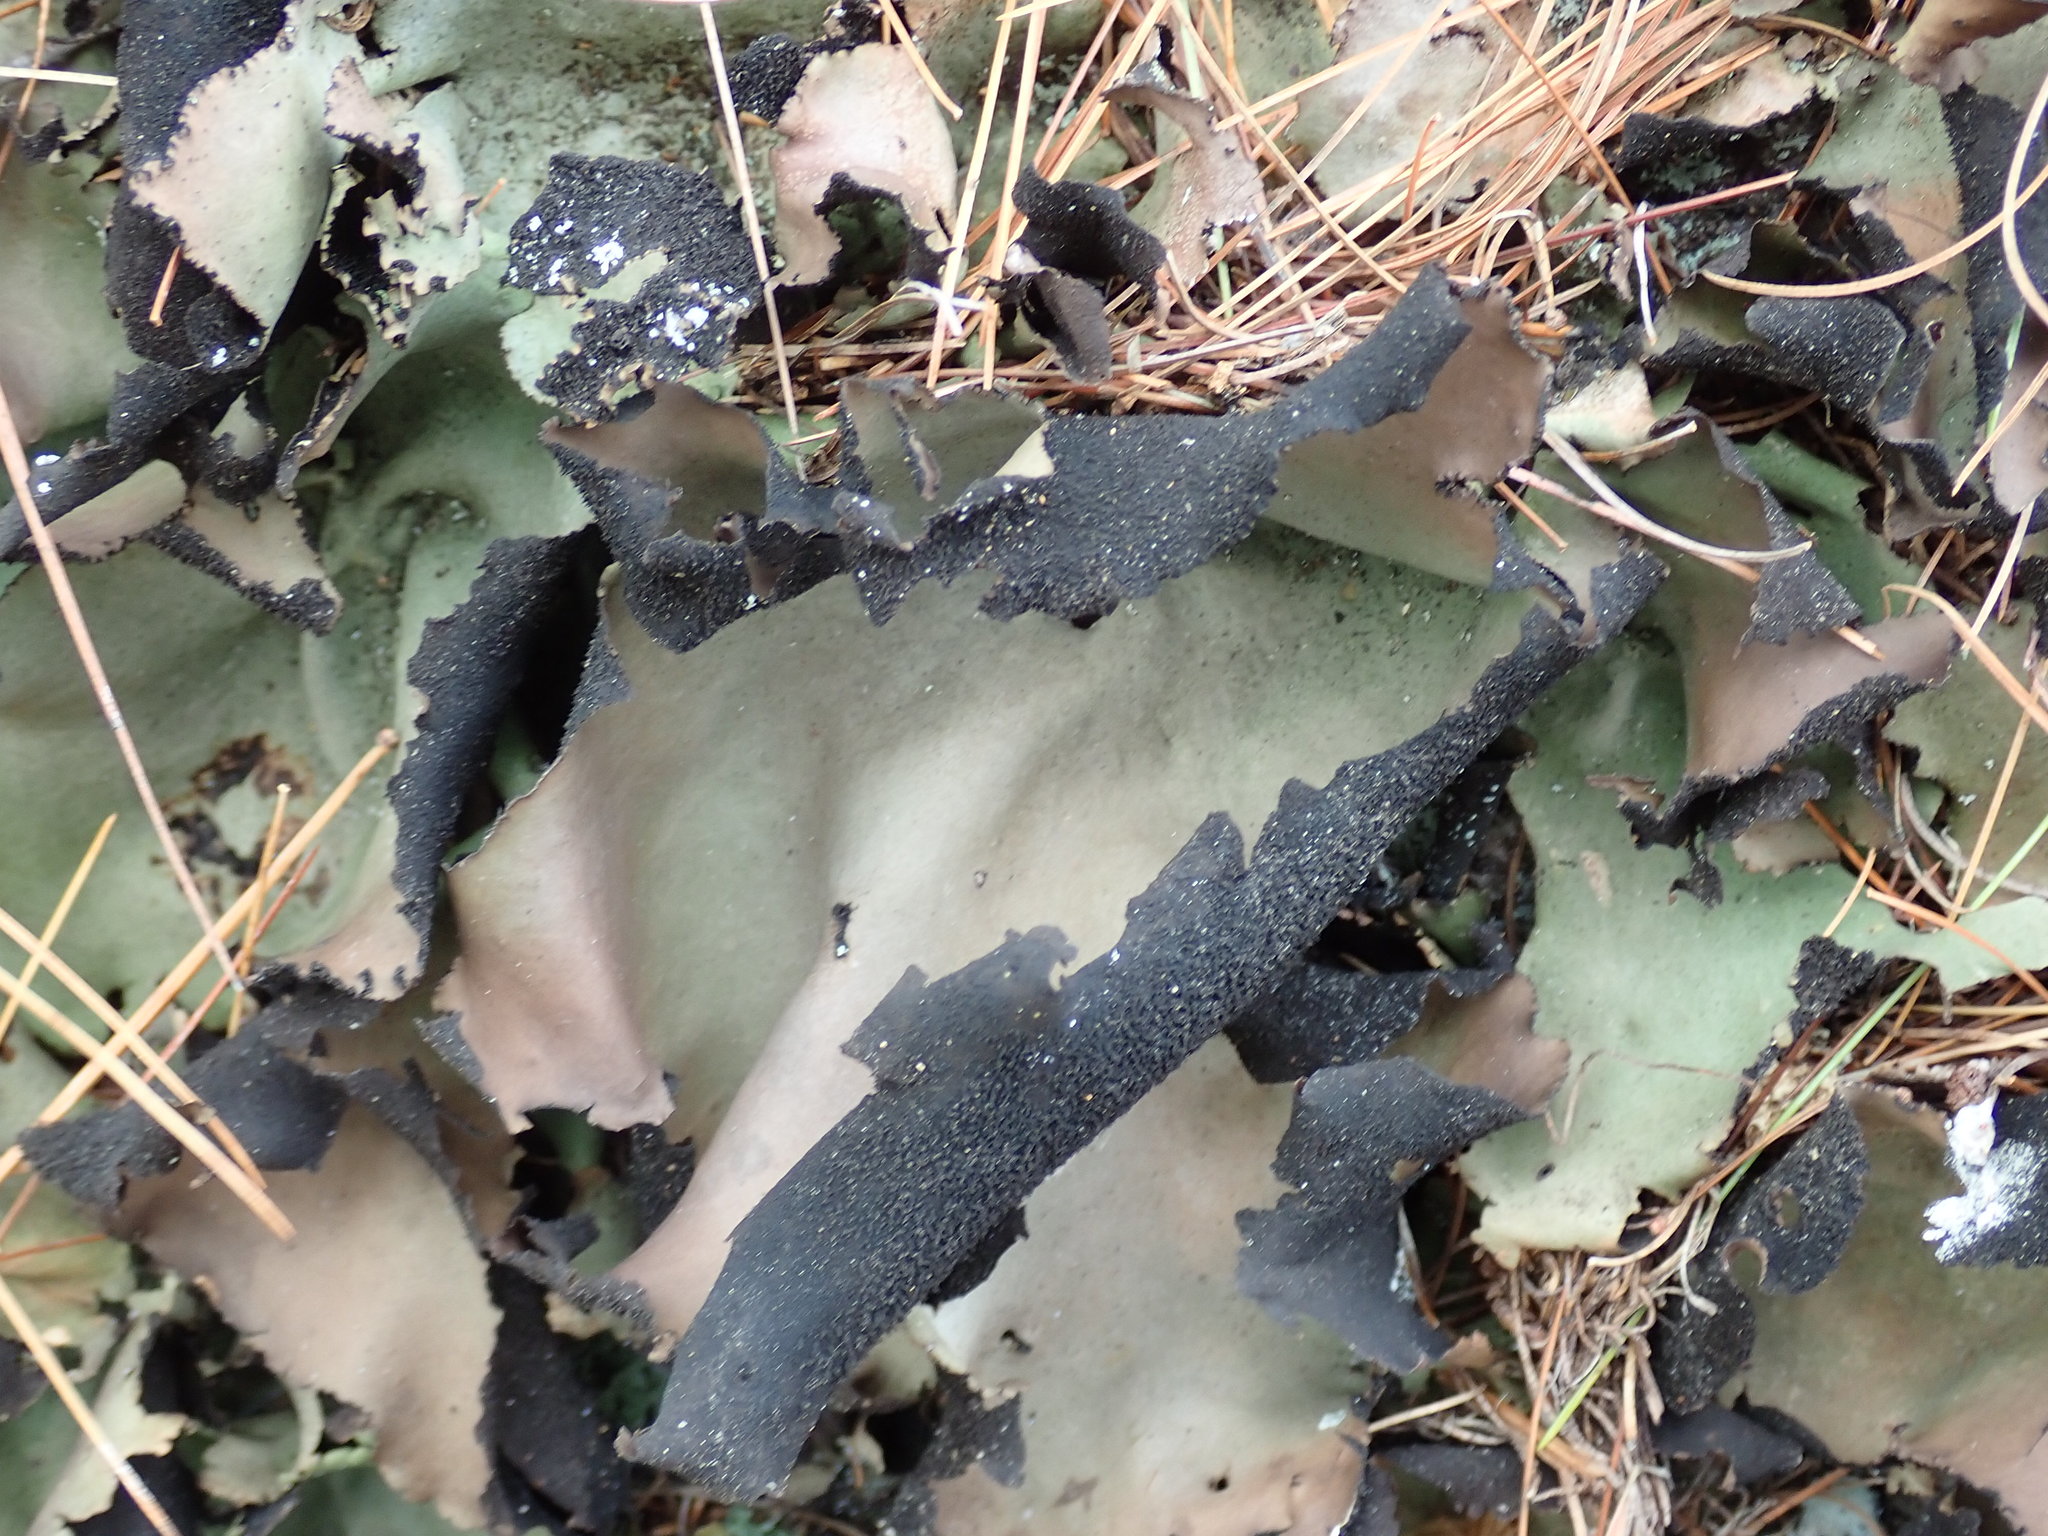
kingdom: Fungi
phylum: Ascomycota
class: Lecanoromycetes
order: Umbilicariales
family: Umbilicariaceae
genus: Umbilicaria
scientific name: Umbilicaria mammulata
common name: Smooth rock tripe
